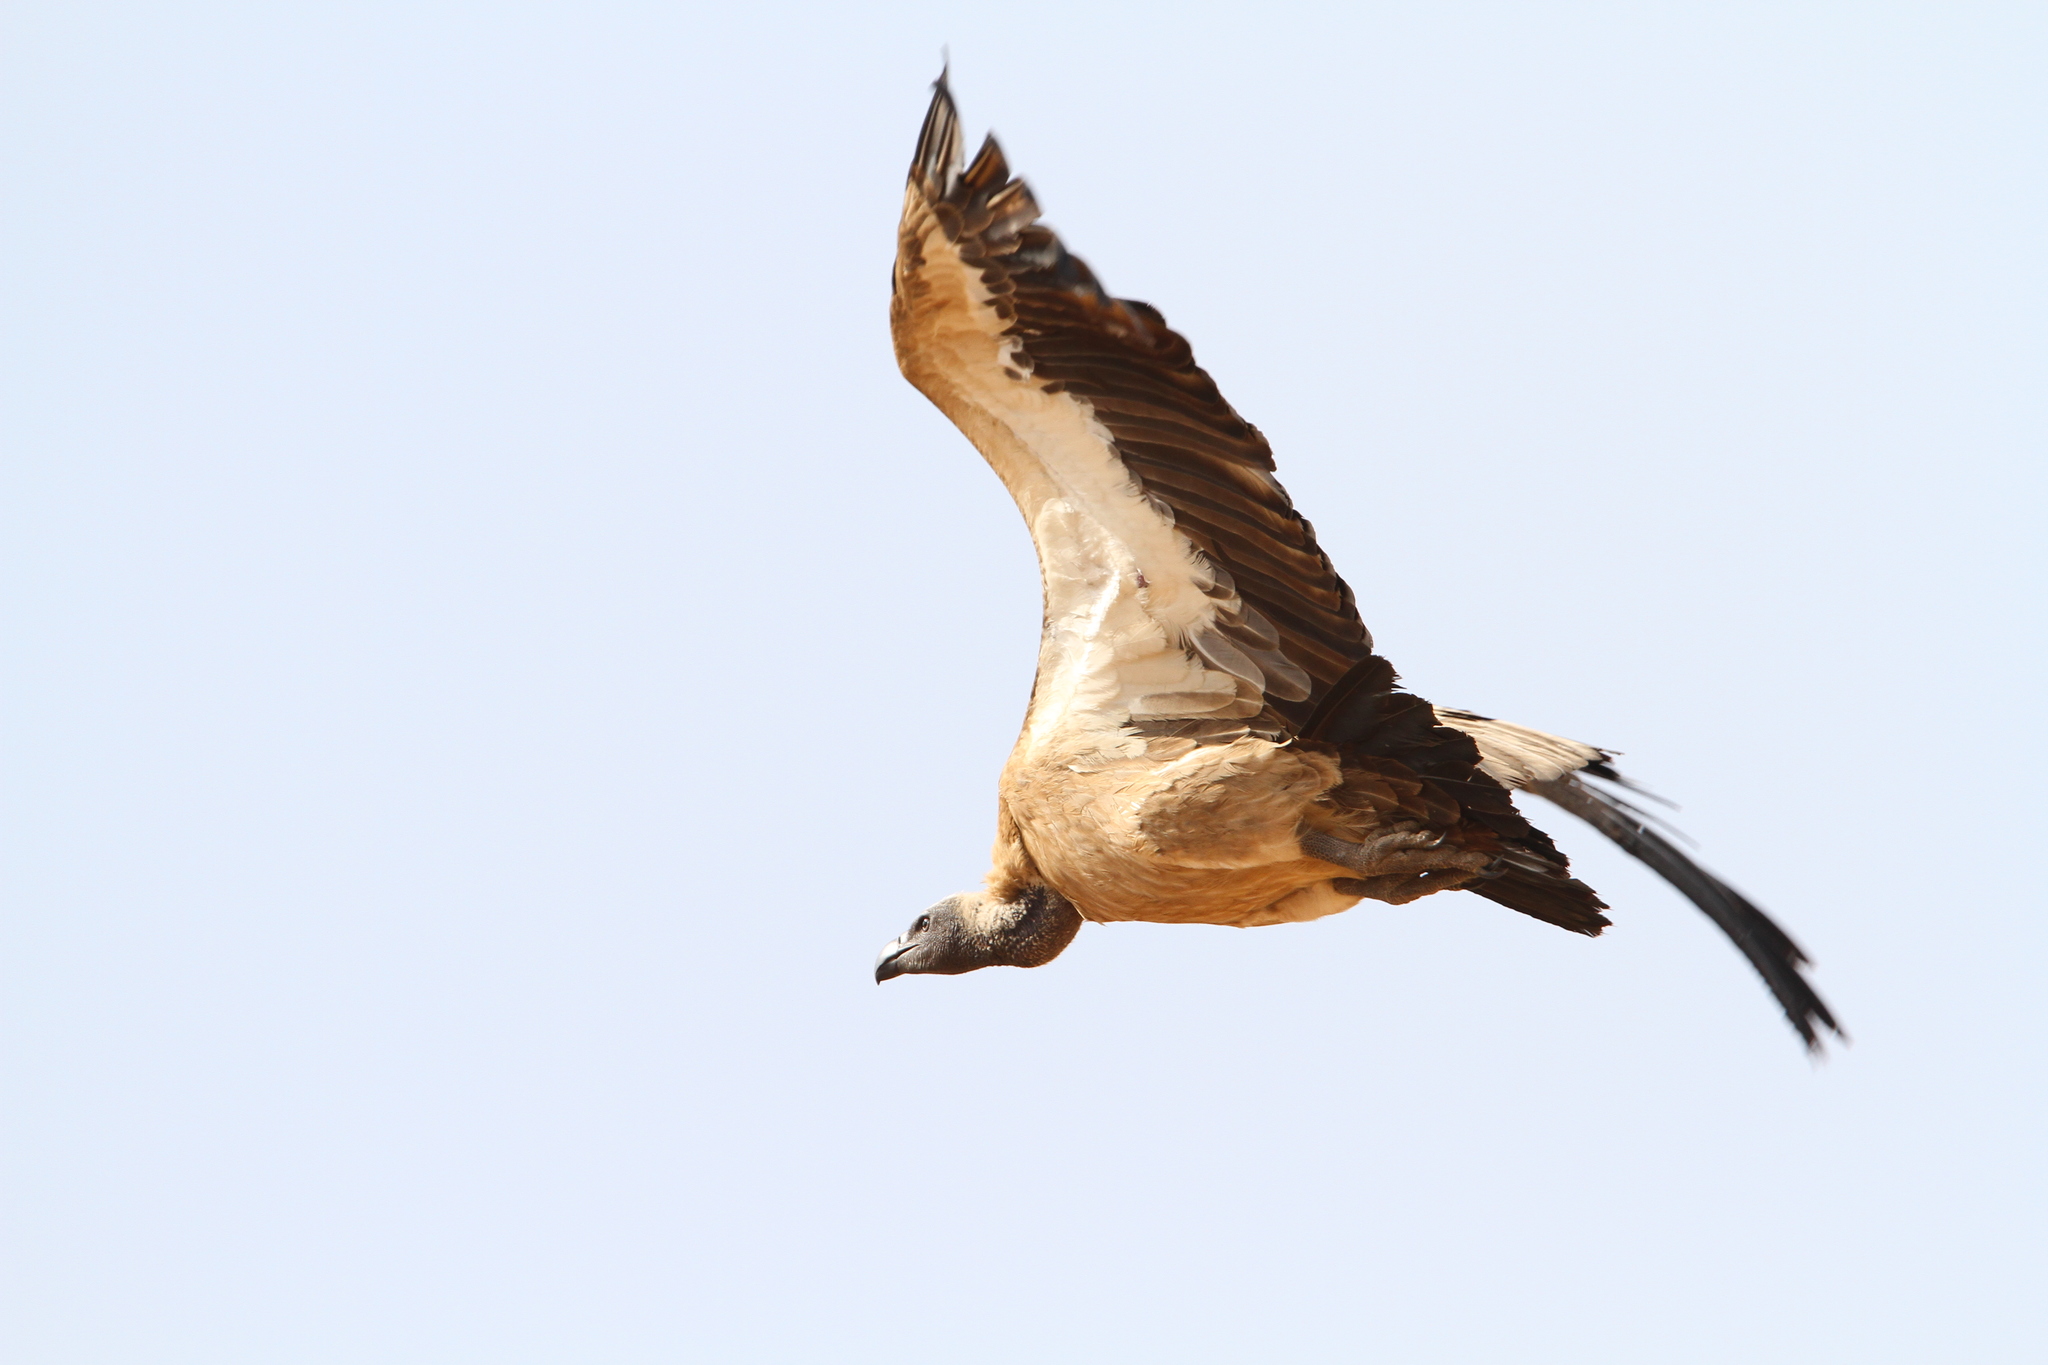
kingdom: Animalia
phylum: Chordata
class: Aves
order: Accipitriformes
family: Accipitridae
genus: Gyps
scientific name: Gyps africanus
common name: White-backed vulture
